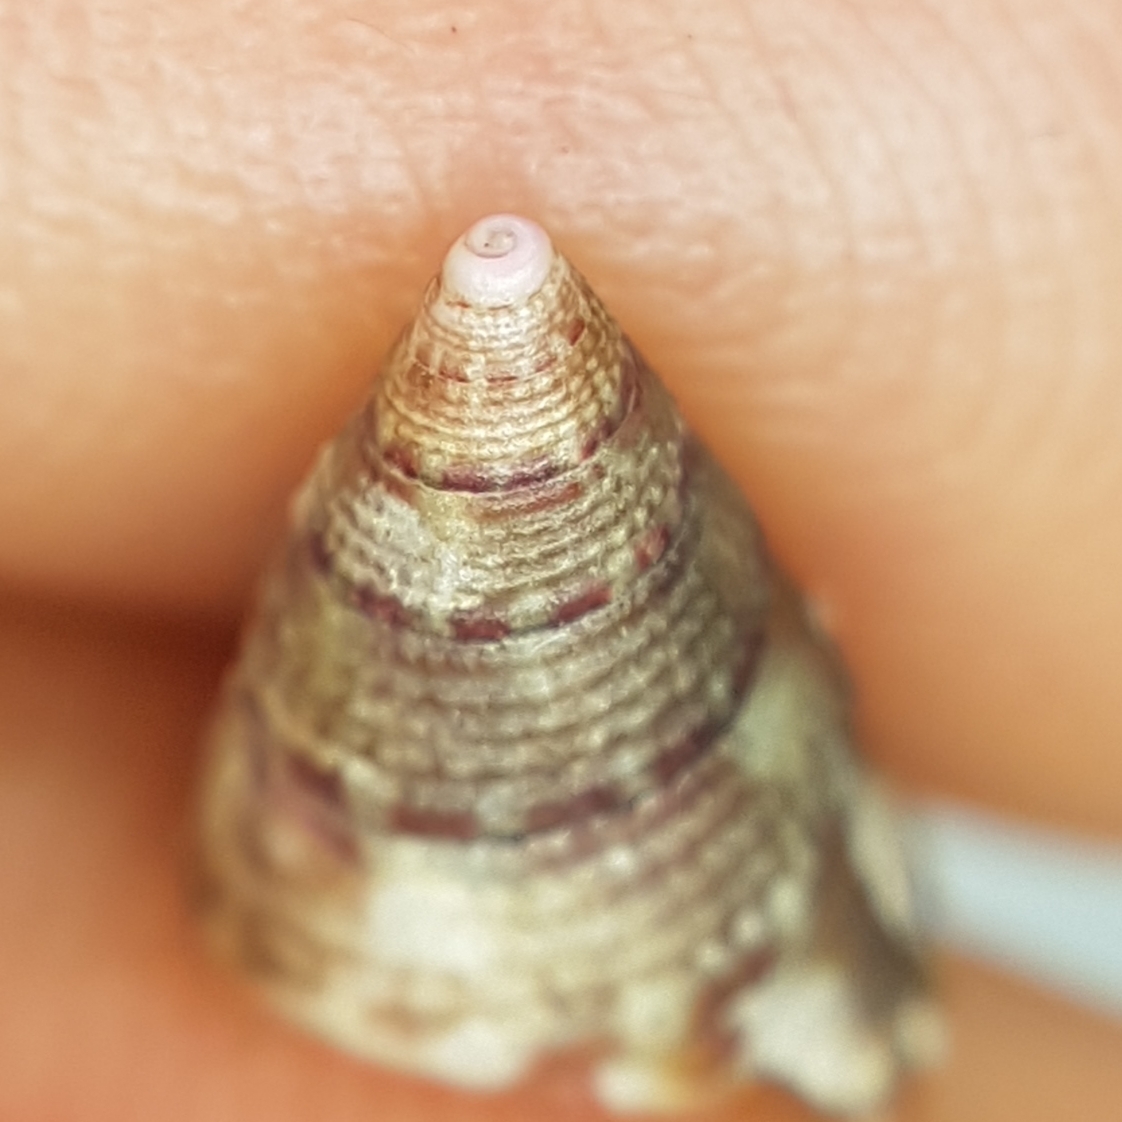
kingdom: Animalia
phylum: Mollusca
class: Gastropoda
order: Trochida
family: Trochidae
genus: Jujubinus
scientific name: Jujubinus exasperatus
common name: Rough top shell
